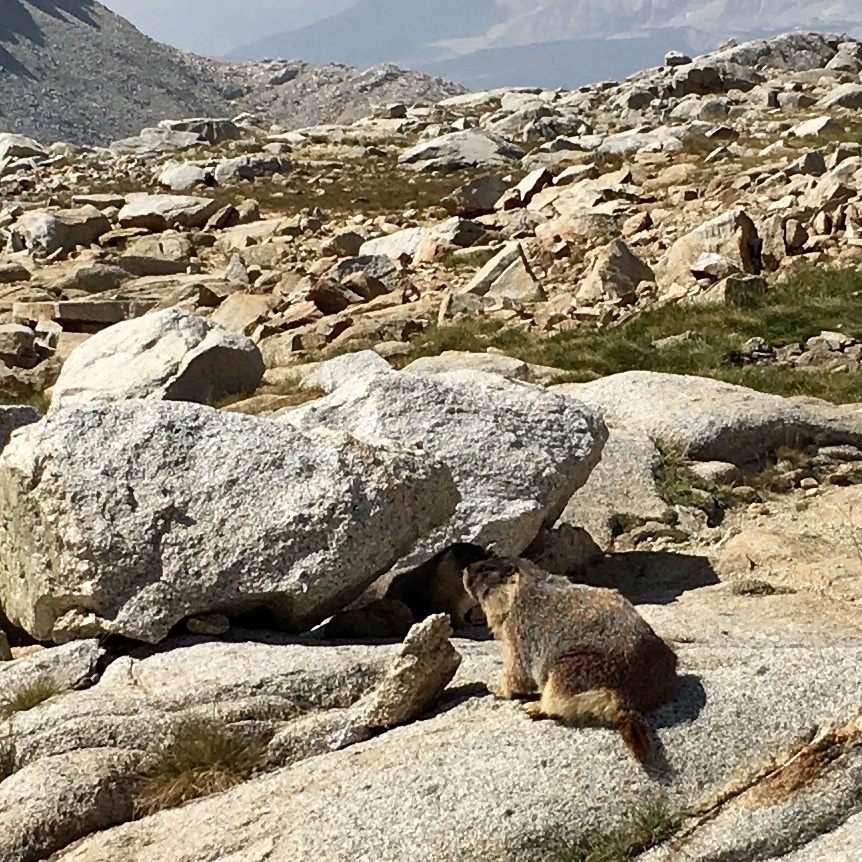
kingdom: Animalia
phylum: Chordata
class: Mammalia
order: Rodentia
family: Sciuridae
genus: Marmota
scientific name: Marmota flaviventris
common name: Yellow-bellied marmot
